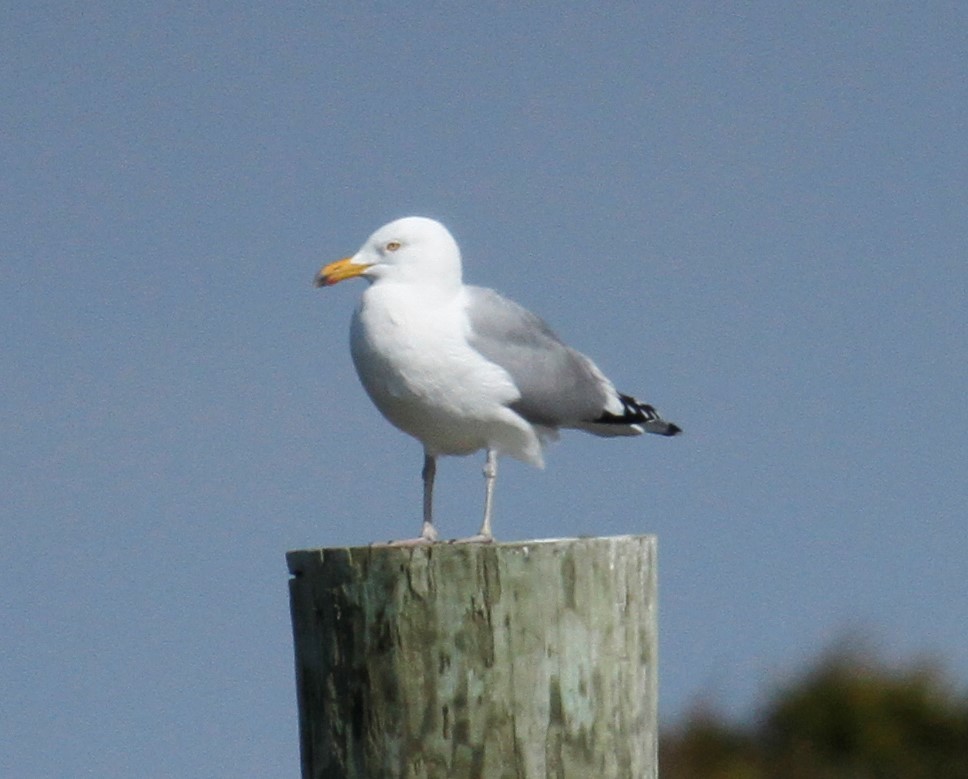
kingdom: Animalia
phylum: Chordata
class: Aves
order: Charadriiformes
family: Laridae
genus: Larus
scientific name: Larus argentatus
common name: Herring gull
